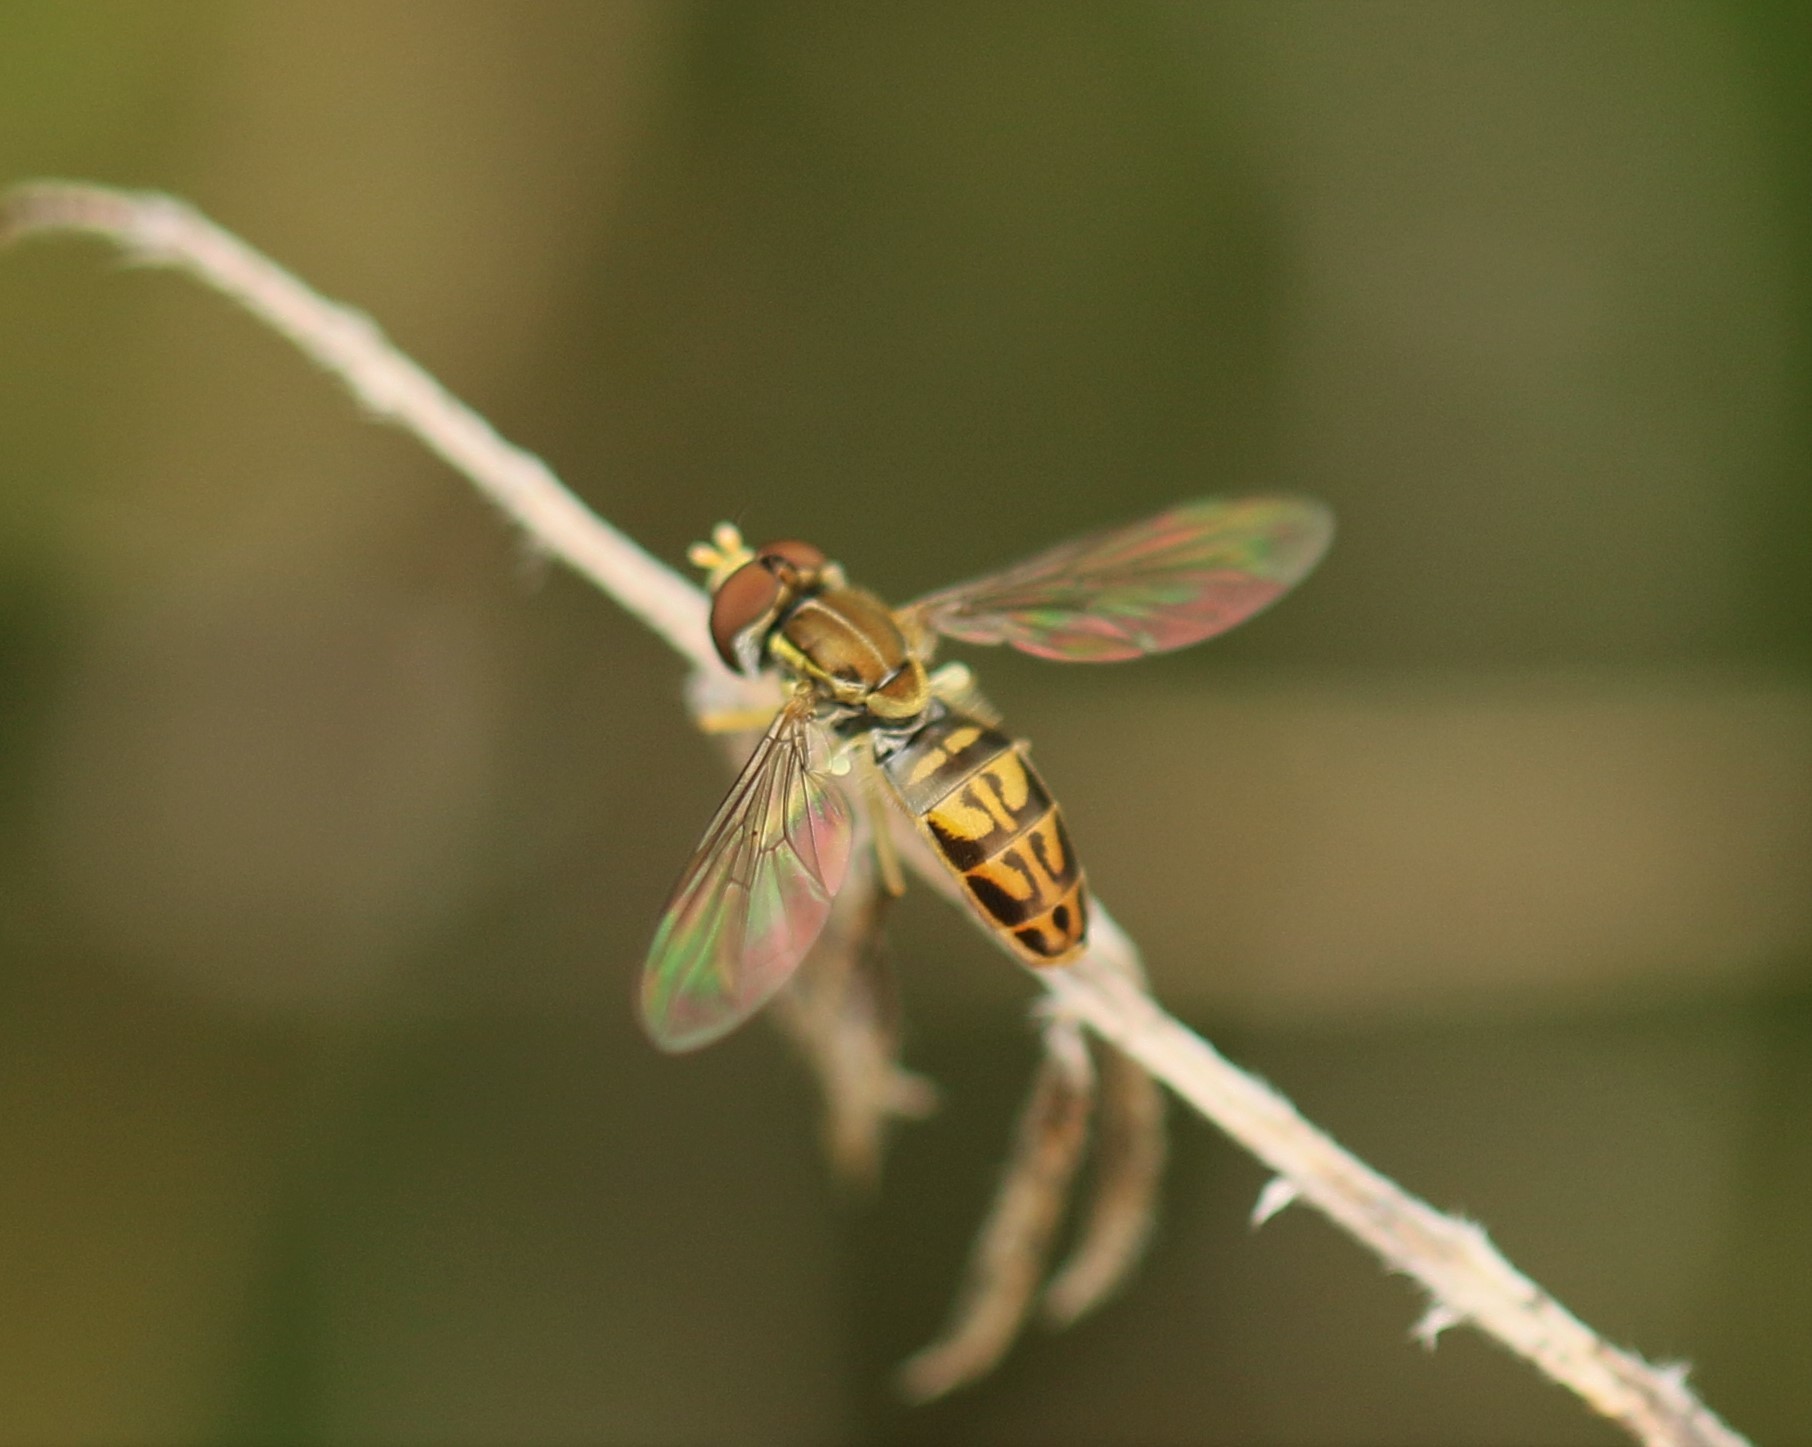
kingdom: Animalia
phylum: Arthropoda
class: Insecta
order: Diptera
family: Syrphidae
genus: Toxomerus
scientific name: Toxomerus marginatus
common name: Syrphid fly
